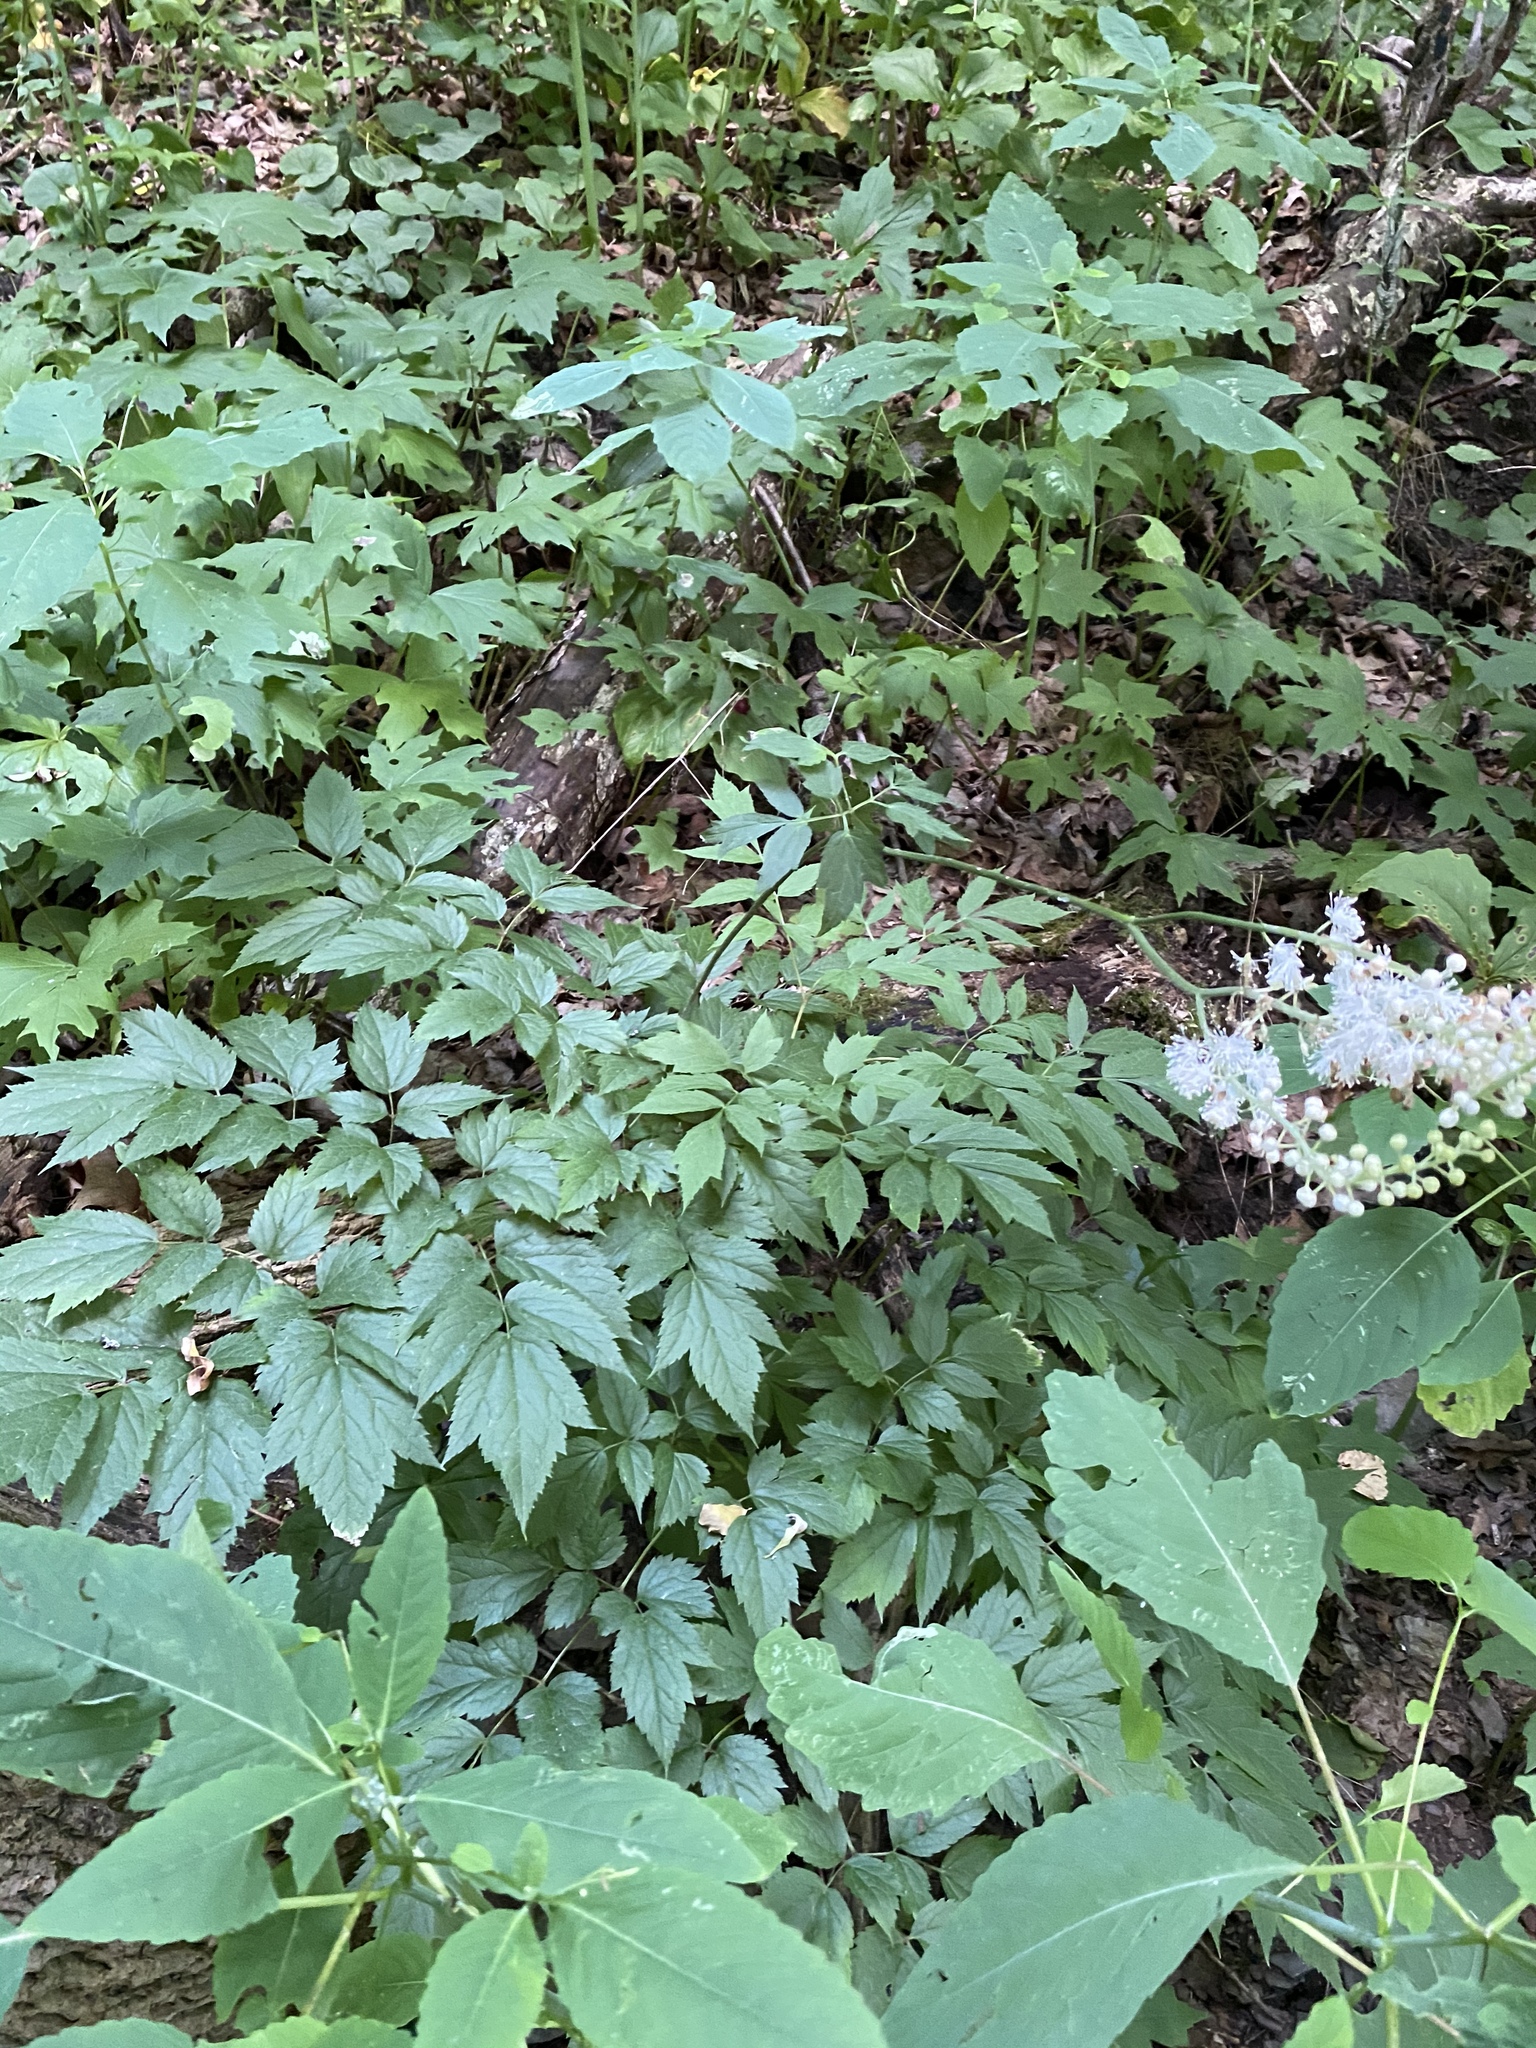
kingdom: Plantae
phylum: Tracheophyta
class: Magnoliopsida
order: Ranunculales
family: Ranunculaceae
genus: Actaea
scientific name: Actaea racemosa
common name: Black cohosh
